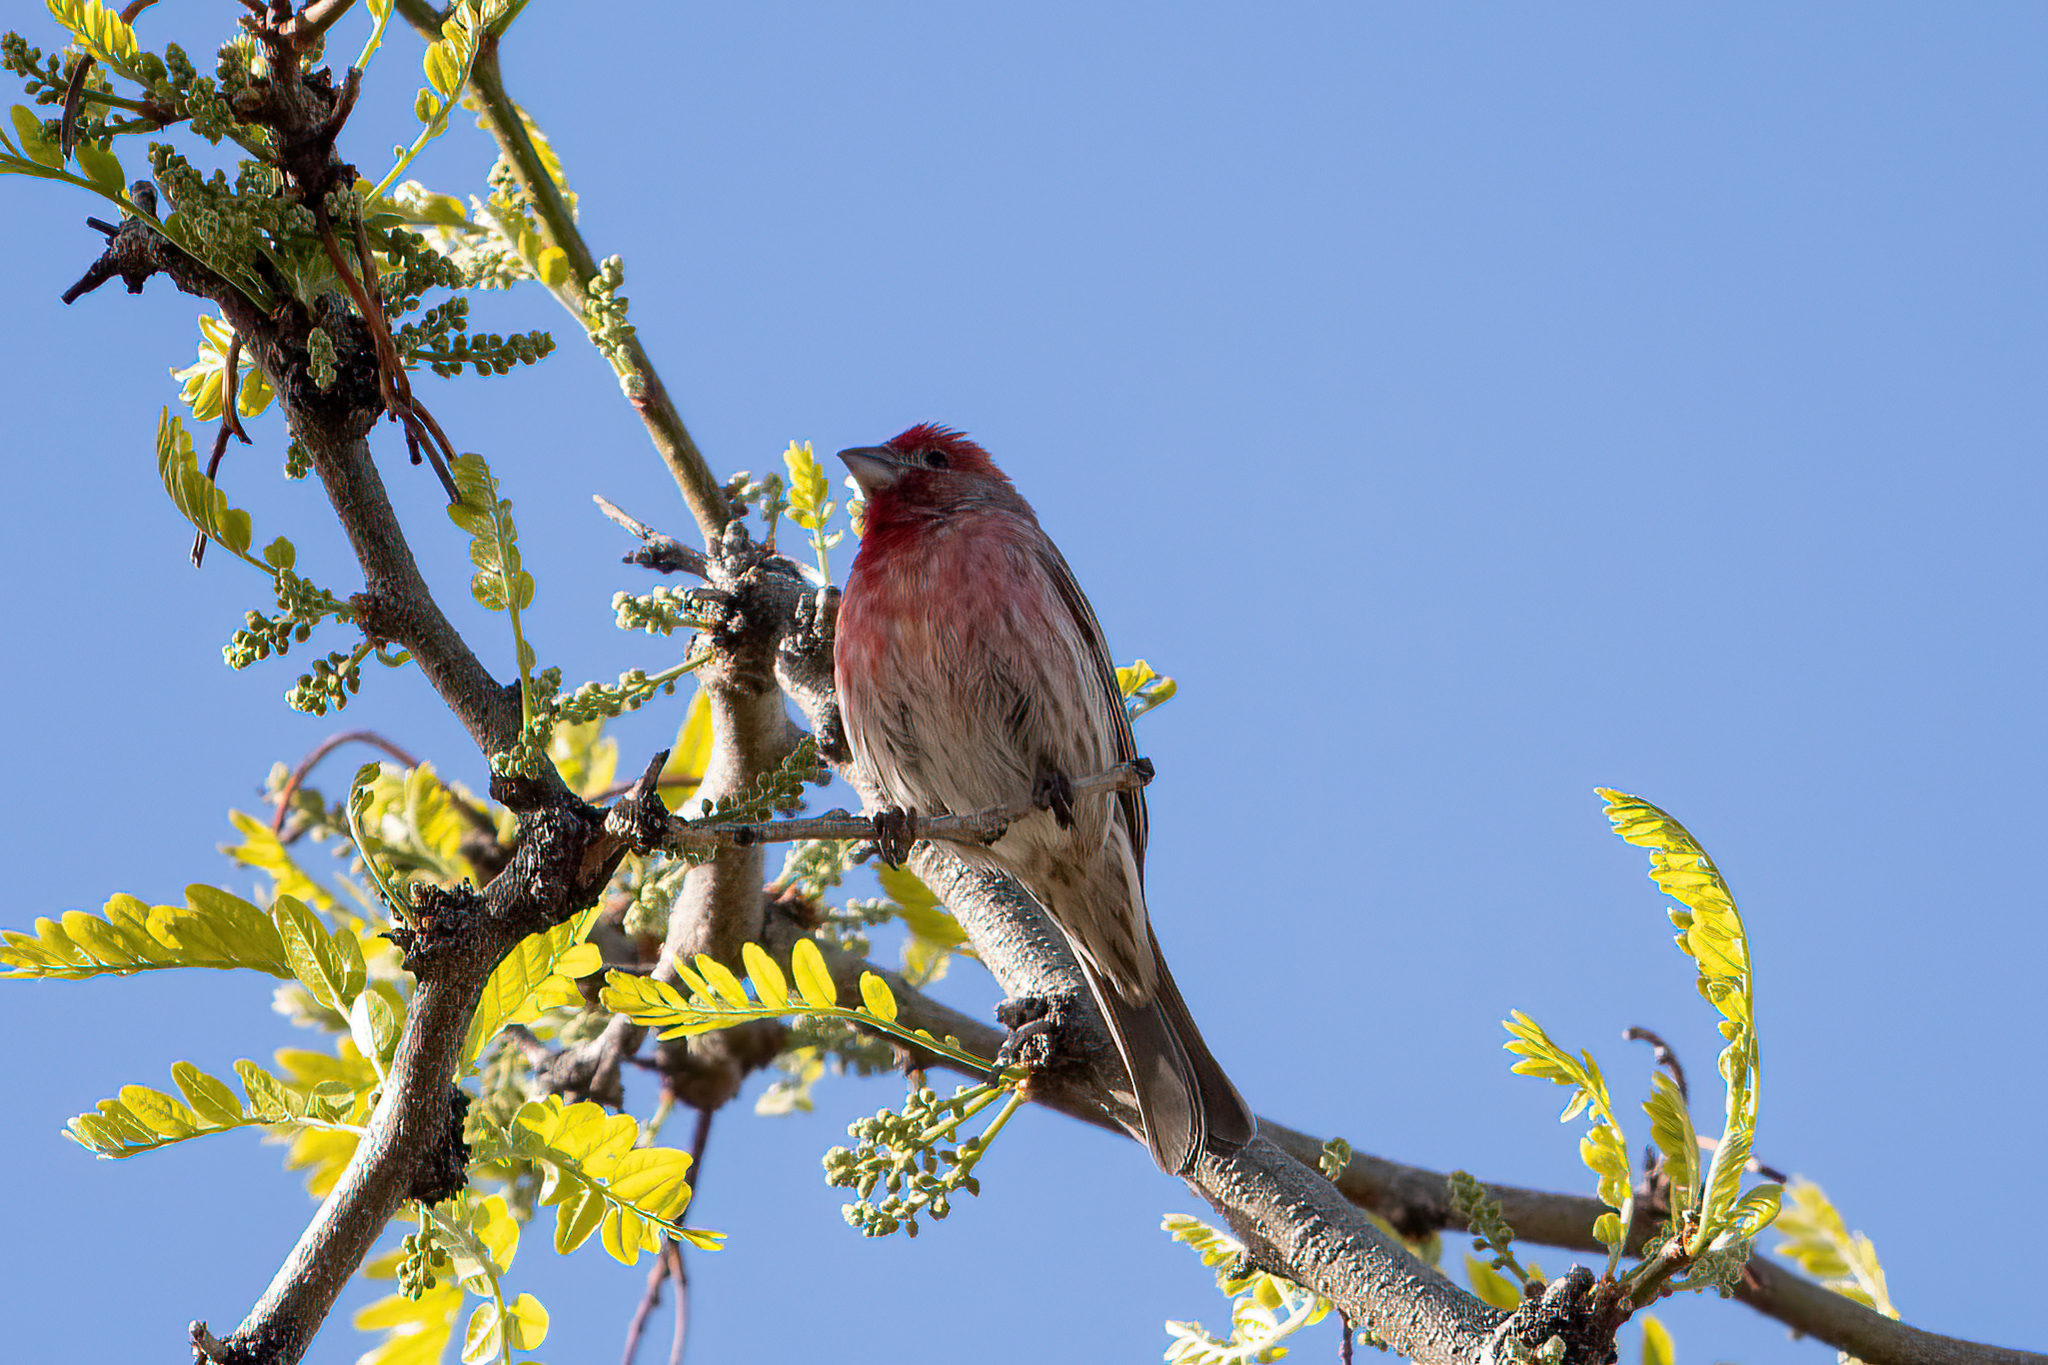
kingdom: Animalia
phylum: Chordata
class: Aves
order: Passeriformes
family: Fringillidae
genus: Haemorhous
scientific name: Haemorhous mexicanus
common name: House finch
